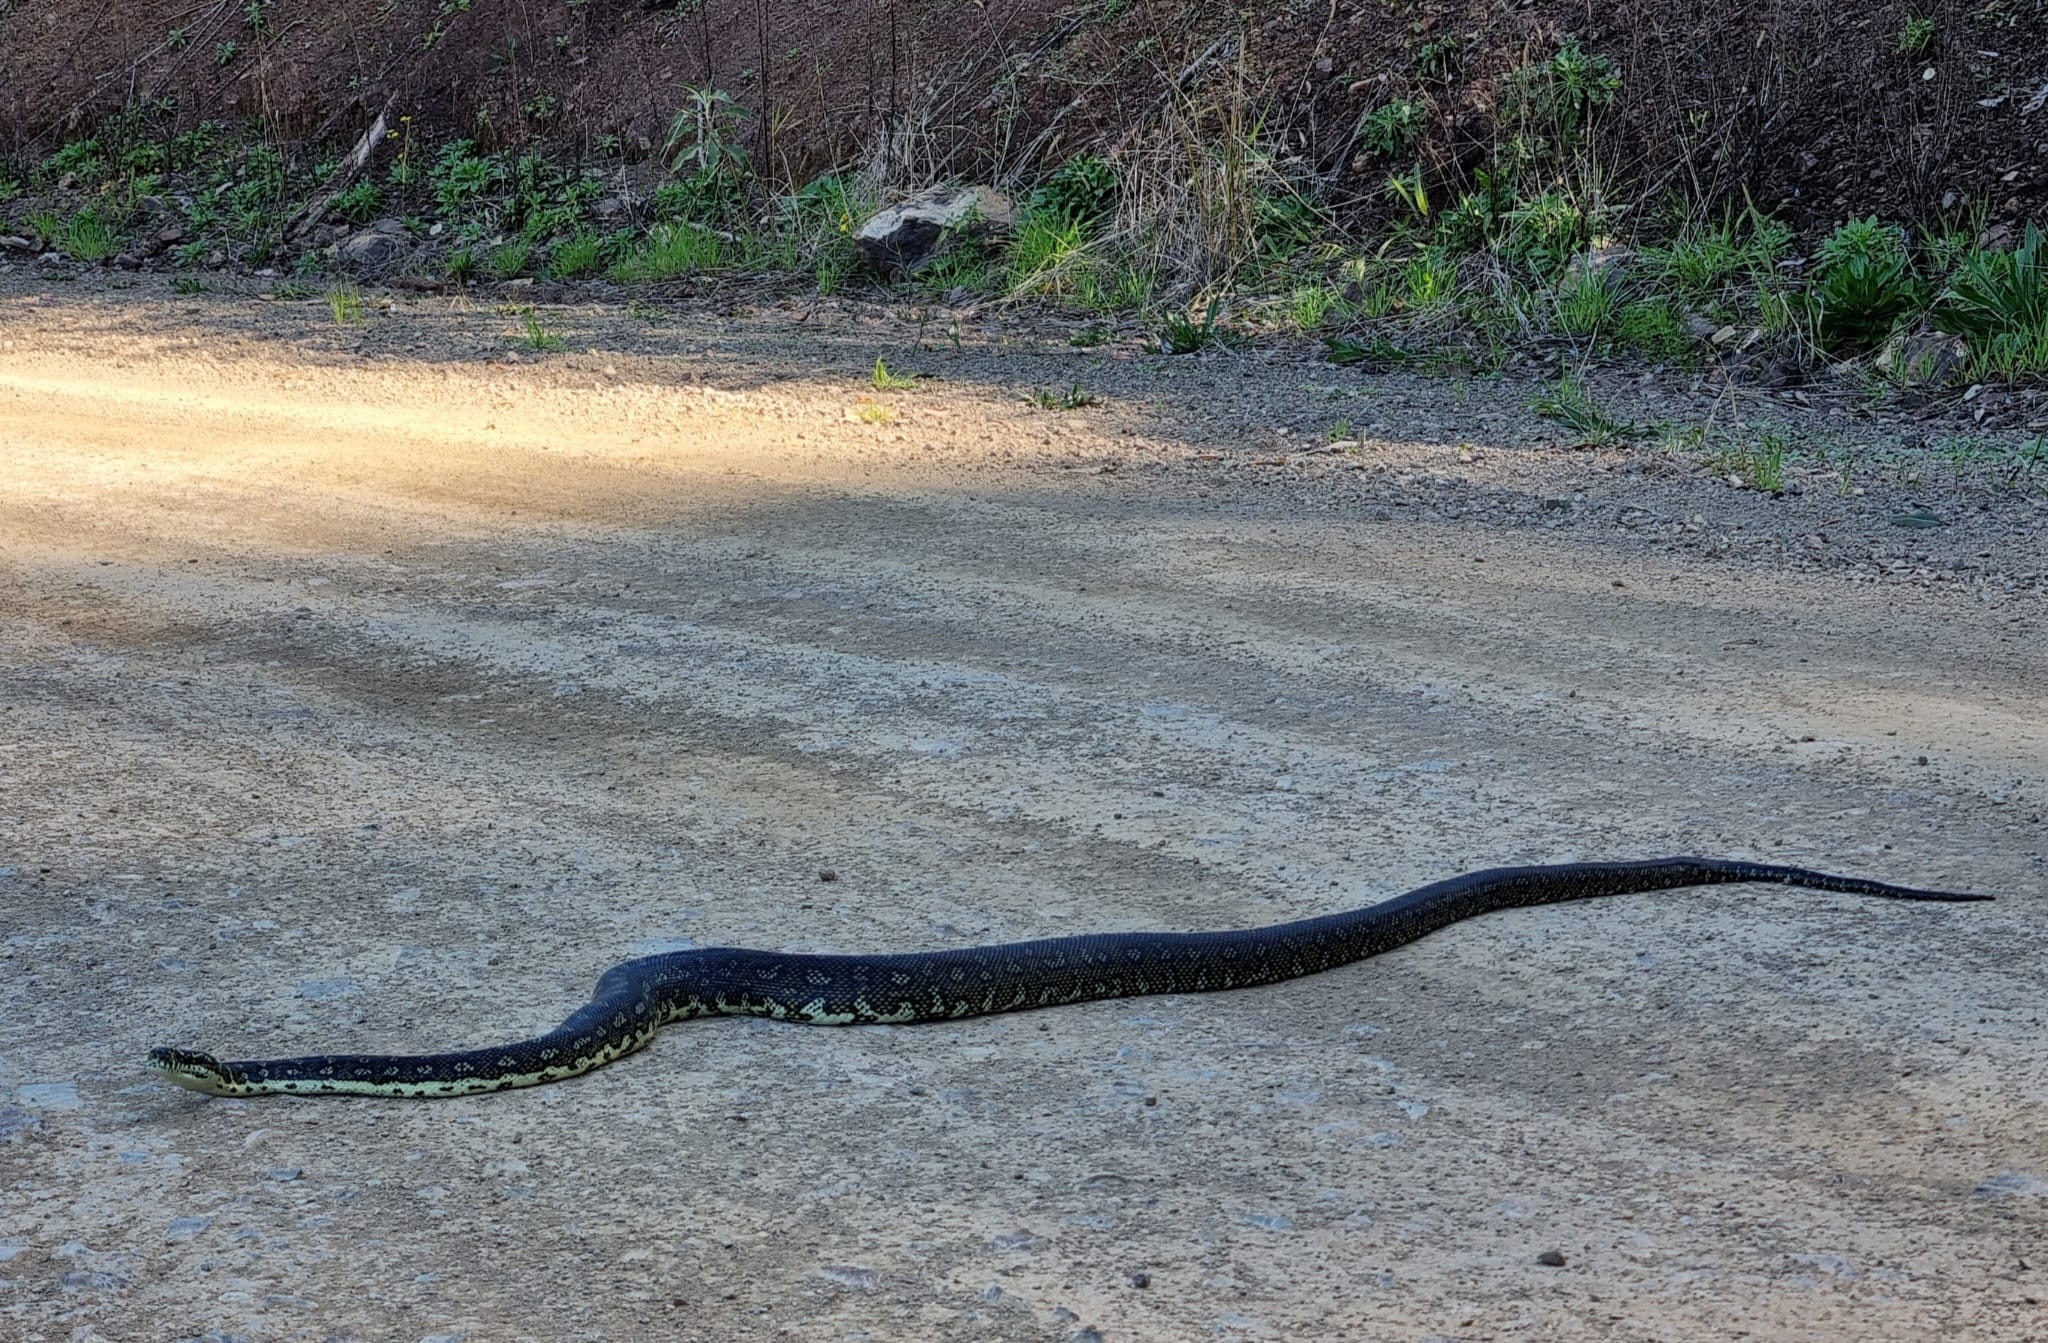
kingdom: Animalia
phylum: Chordata
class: Squamata
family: Pythonidae
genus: Morelia
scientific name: Morelia spilota
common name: Carpet python
